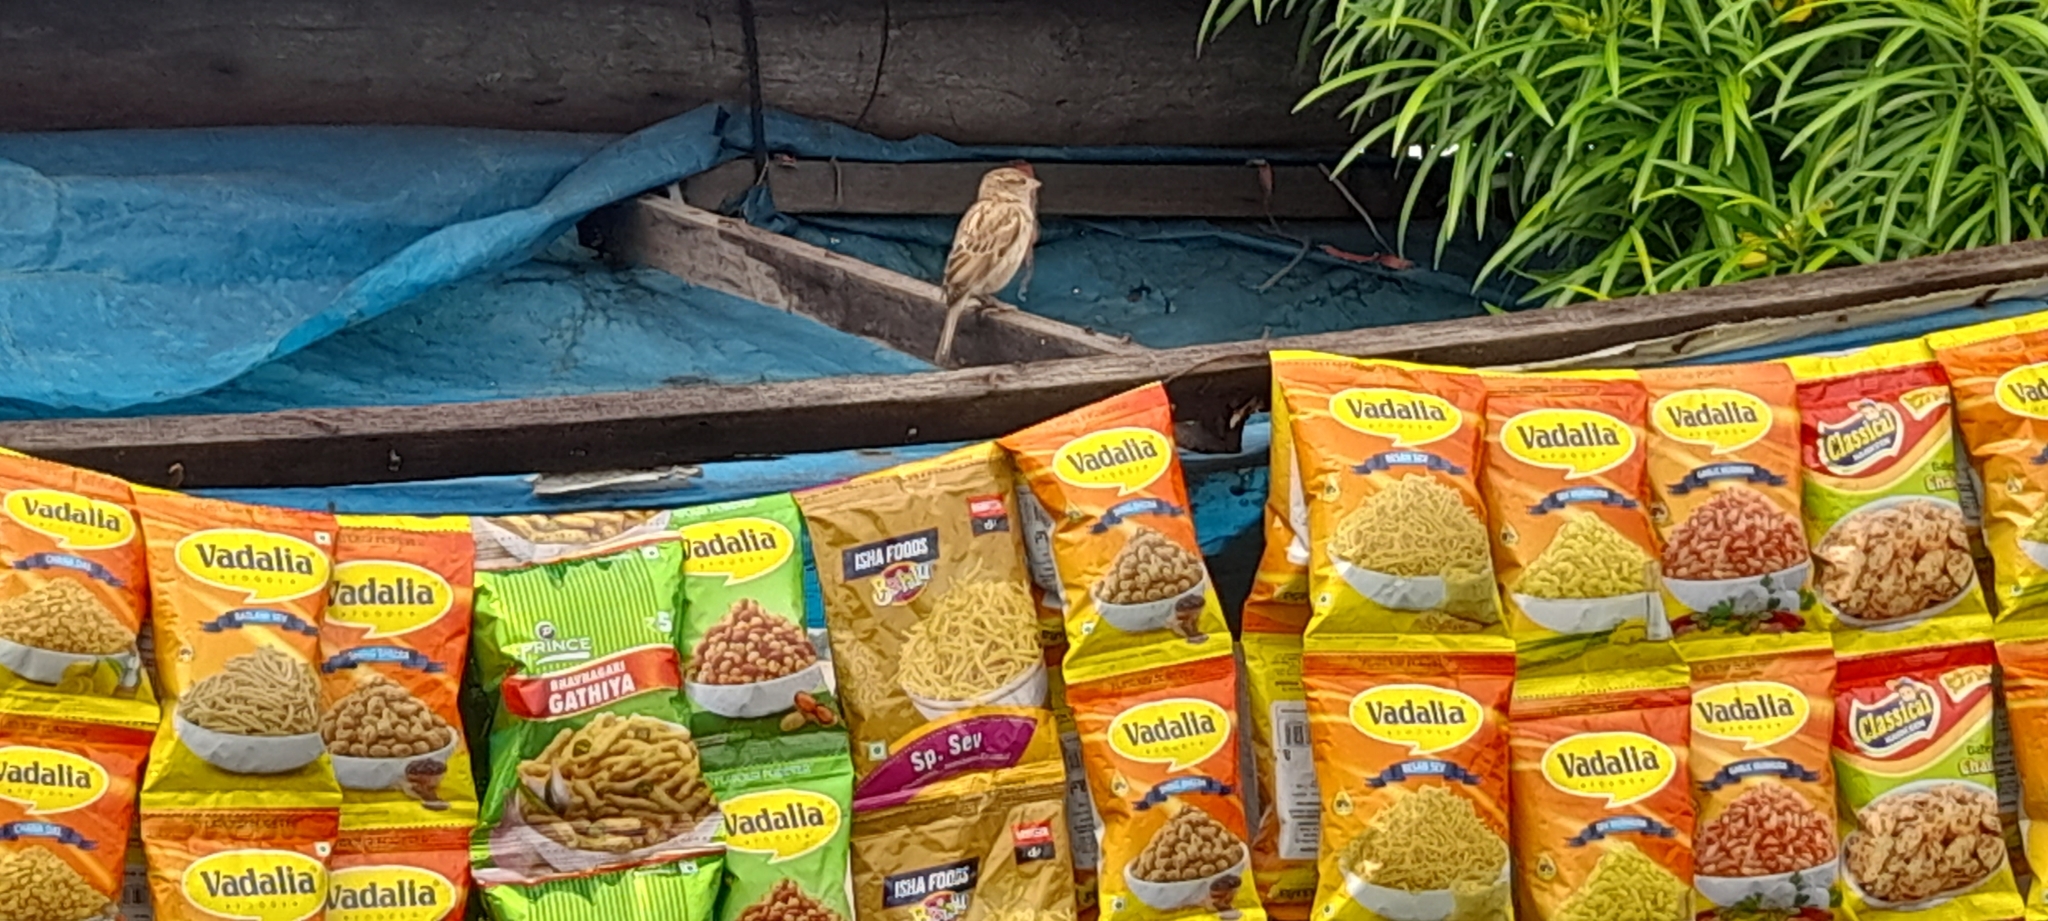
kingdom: Animalia
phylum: Chordata
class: Aves
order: Passeriformes
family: Passeridae
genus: Passer
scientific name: Passer domesticus
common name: House sparrow
